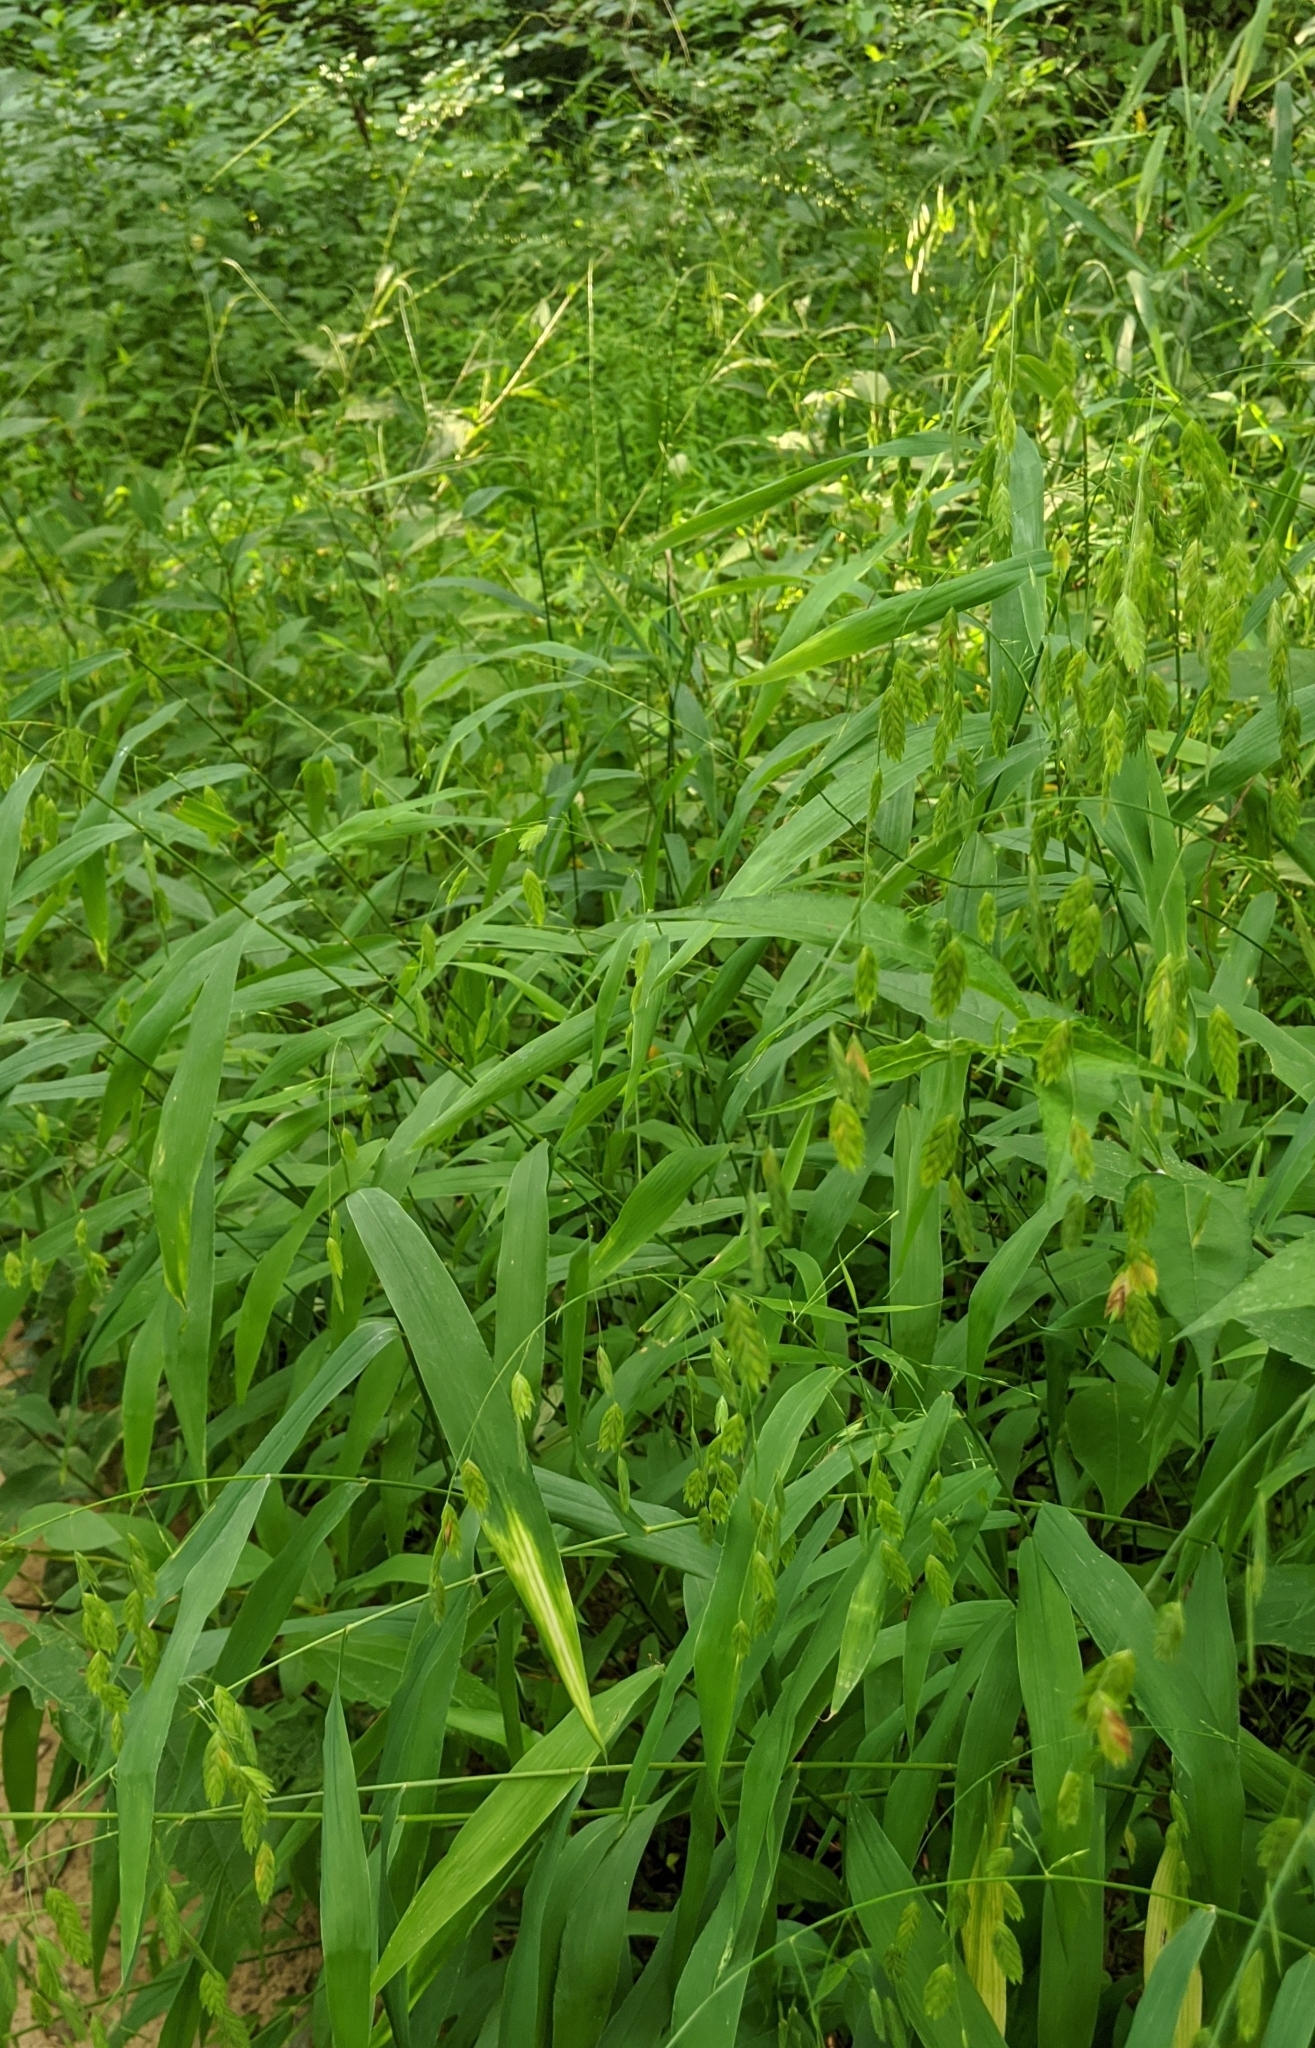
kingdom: Plantae
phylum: Tracheophyta
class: Liliopsida
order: Poales
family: Poaceae
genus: Chasmanthium
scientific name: Chasmanthium latifolium
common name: Broad-leaved chasmanthium
